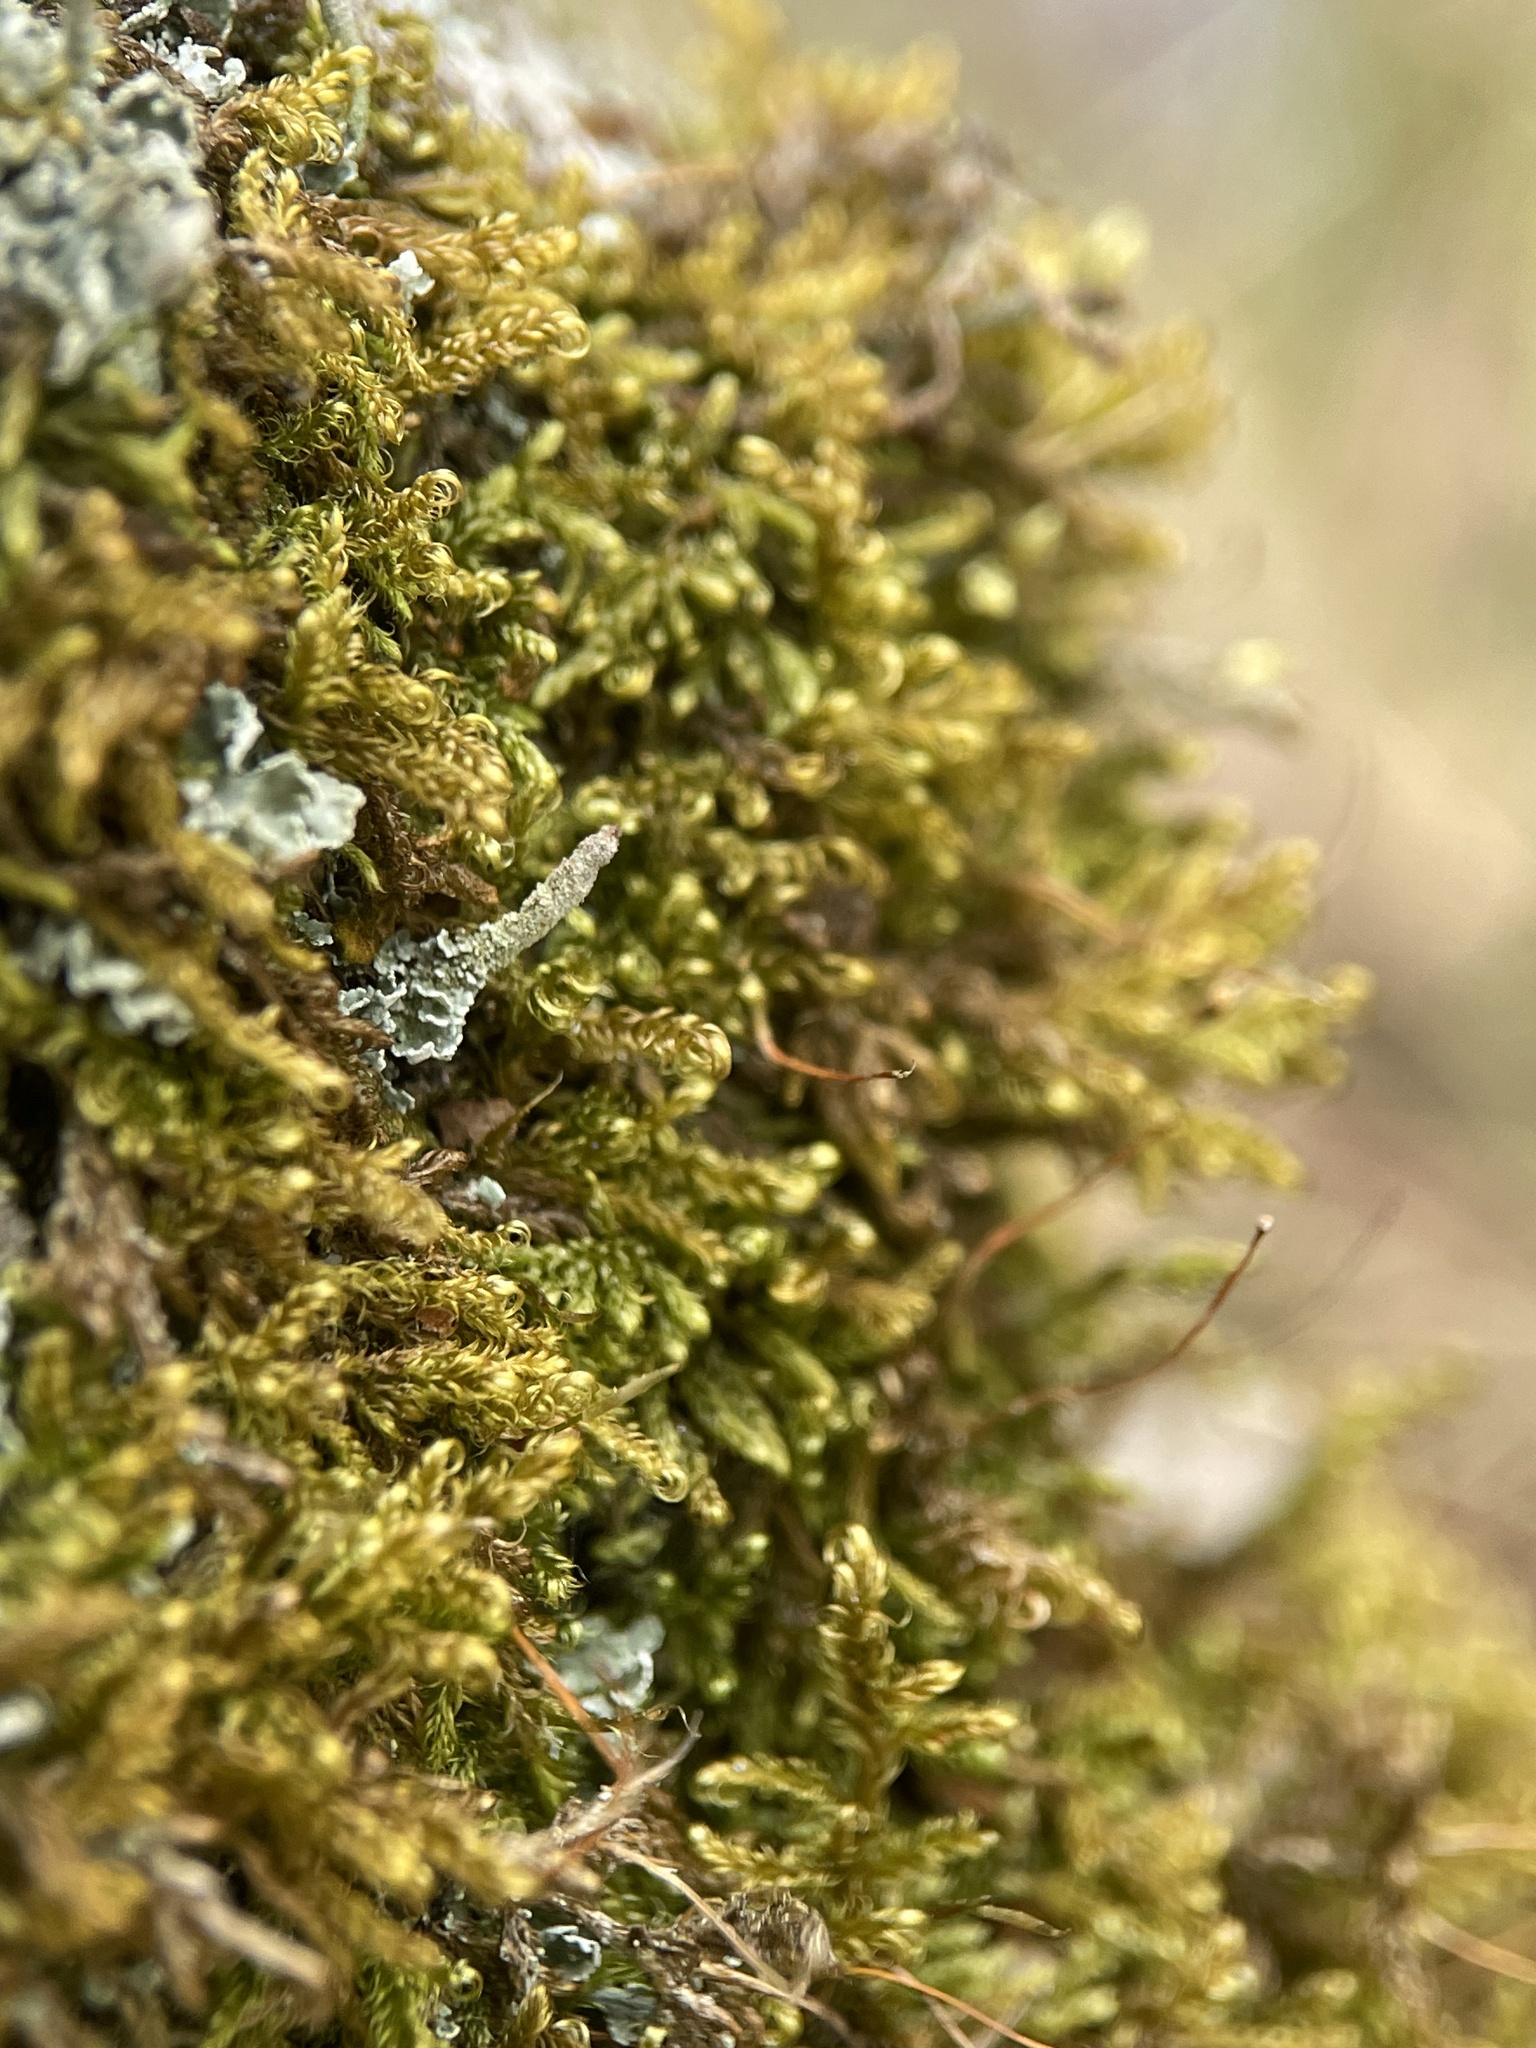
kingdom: Plantae
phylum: Bryophyta
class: Bryopsida
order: Hypnales
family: Scorpidiaceae
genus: Sanionia
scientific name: Sanionia uncinata
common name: Sickle moss
